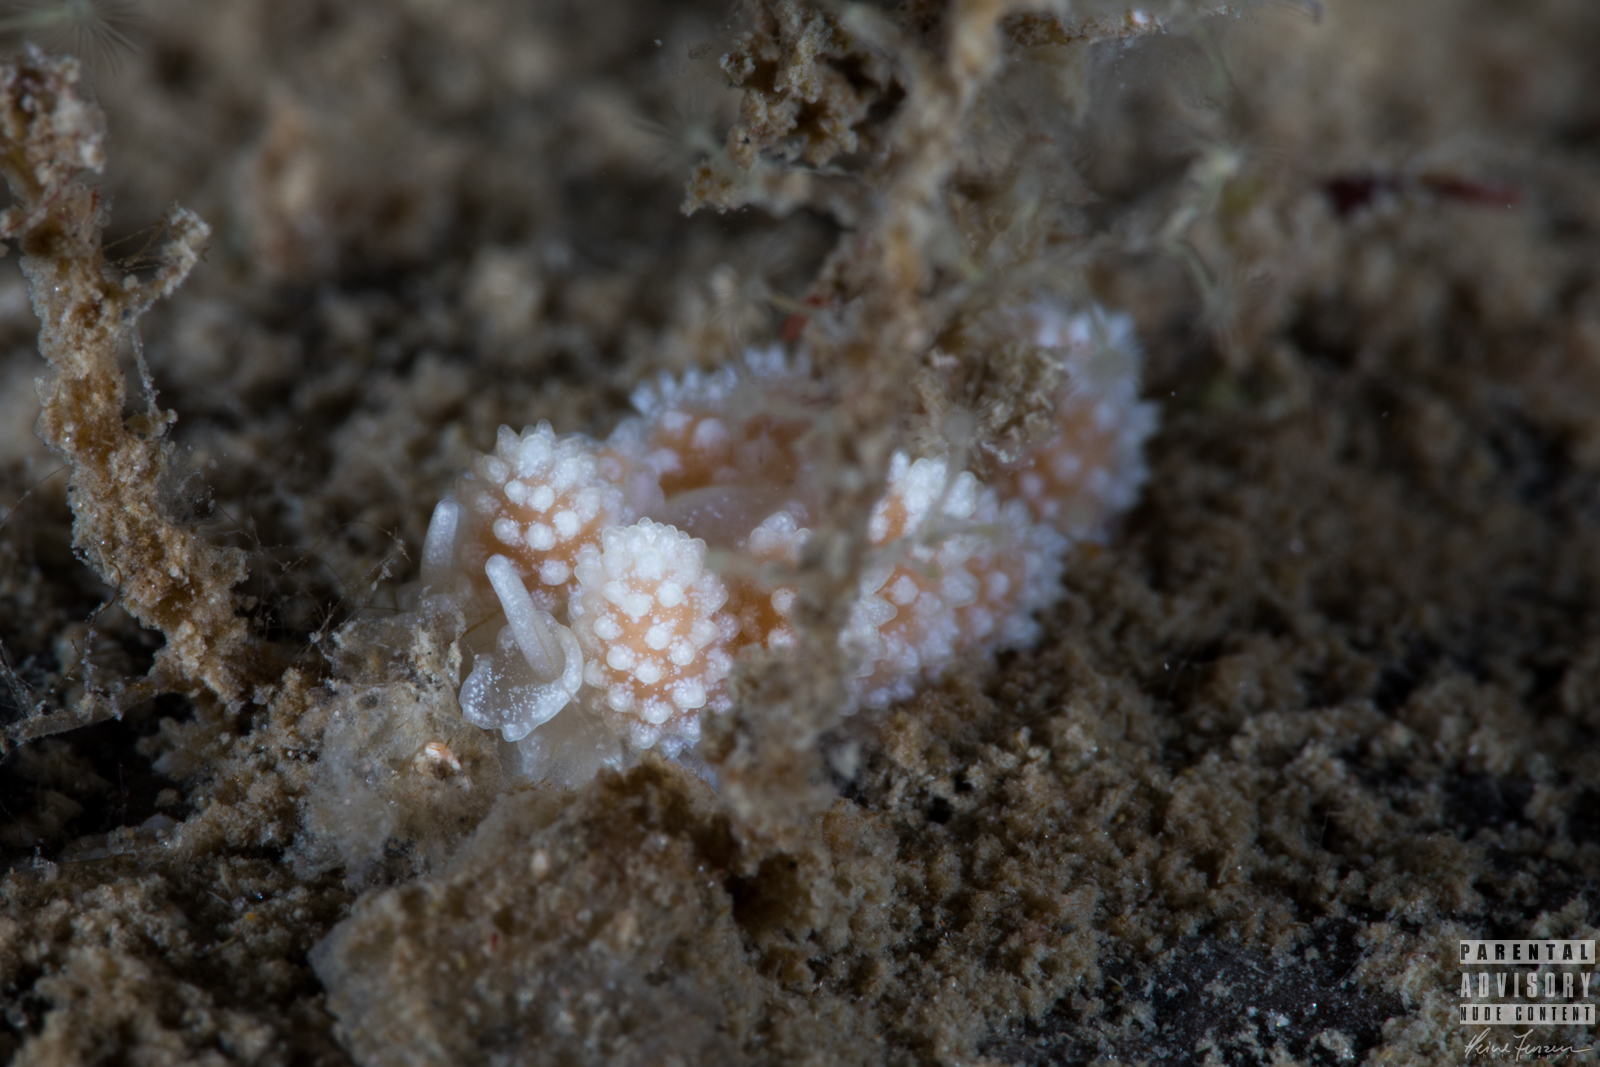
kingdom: Animalia
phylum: Mollusca
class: Gastropoda
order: Nudibranchia
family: Dotidae
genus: Doto
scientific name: Doto fragilis
